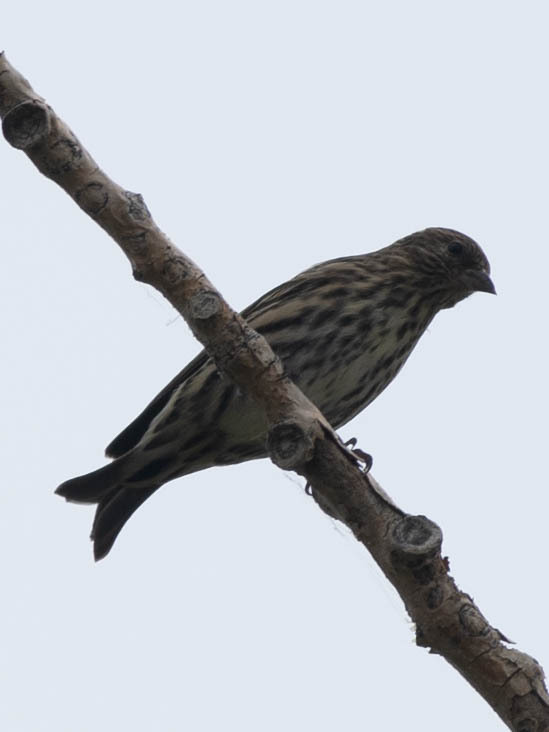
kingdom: Animalia
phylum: Chordata
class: Aves
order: Passeriformes
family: Fringillidae
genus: Spinus
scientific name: Spinus pinus
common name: Pine siskin
